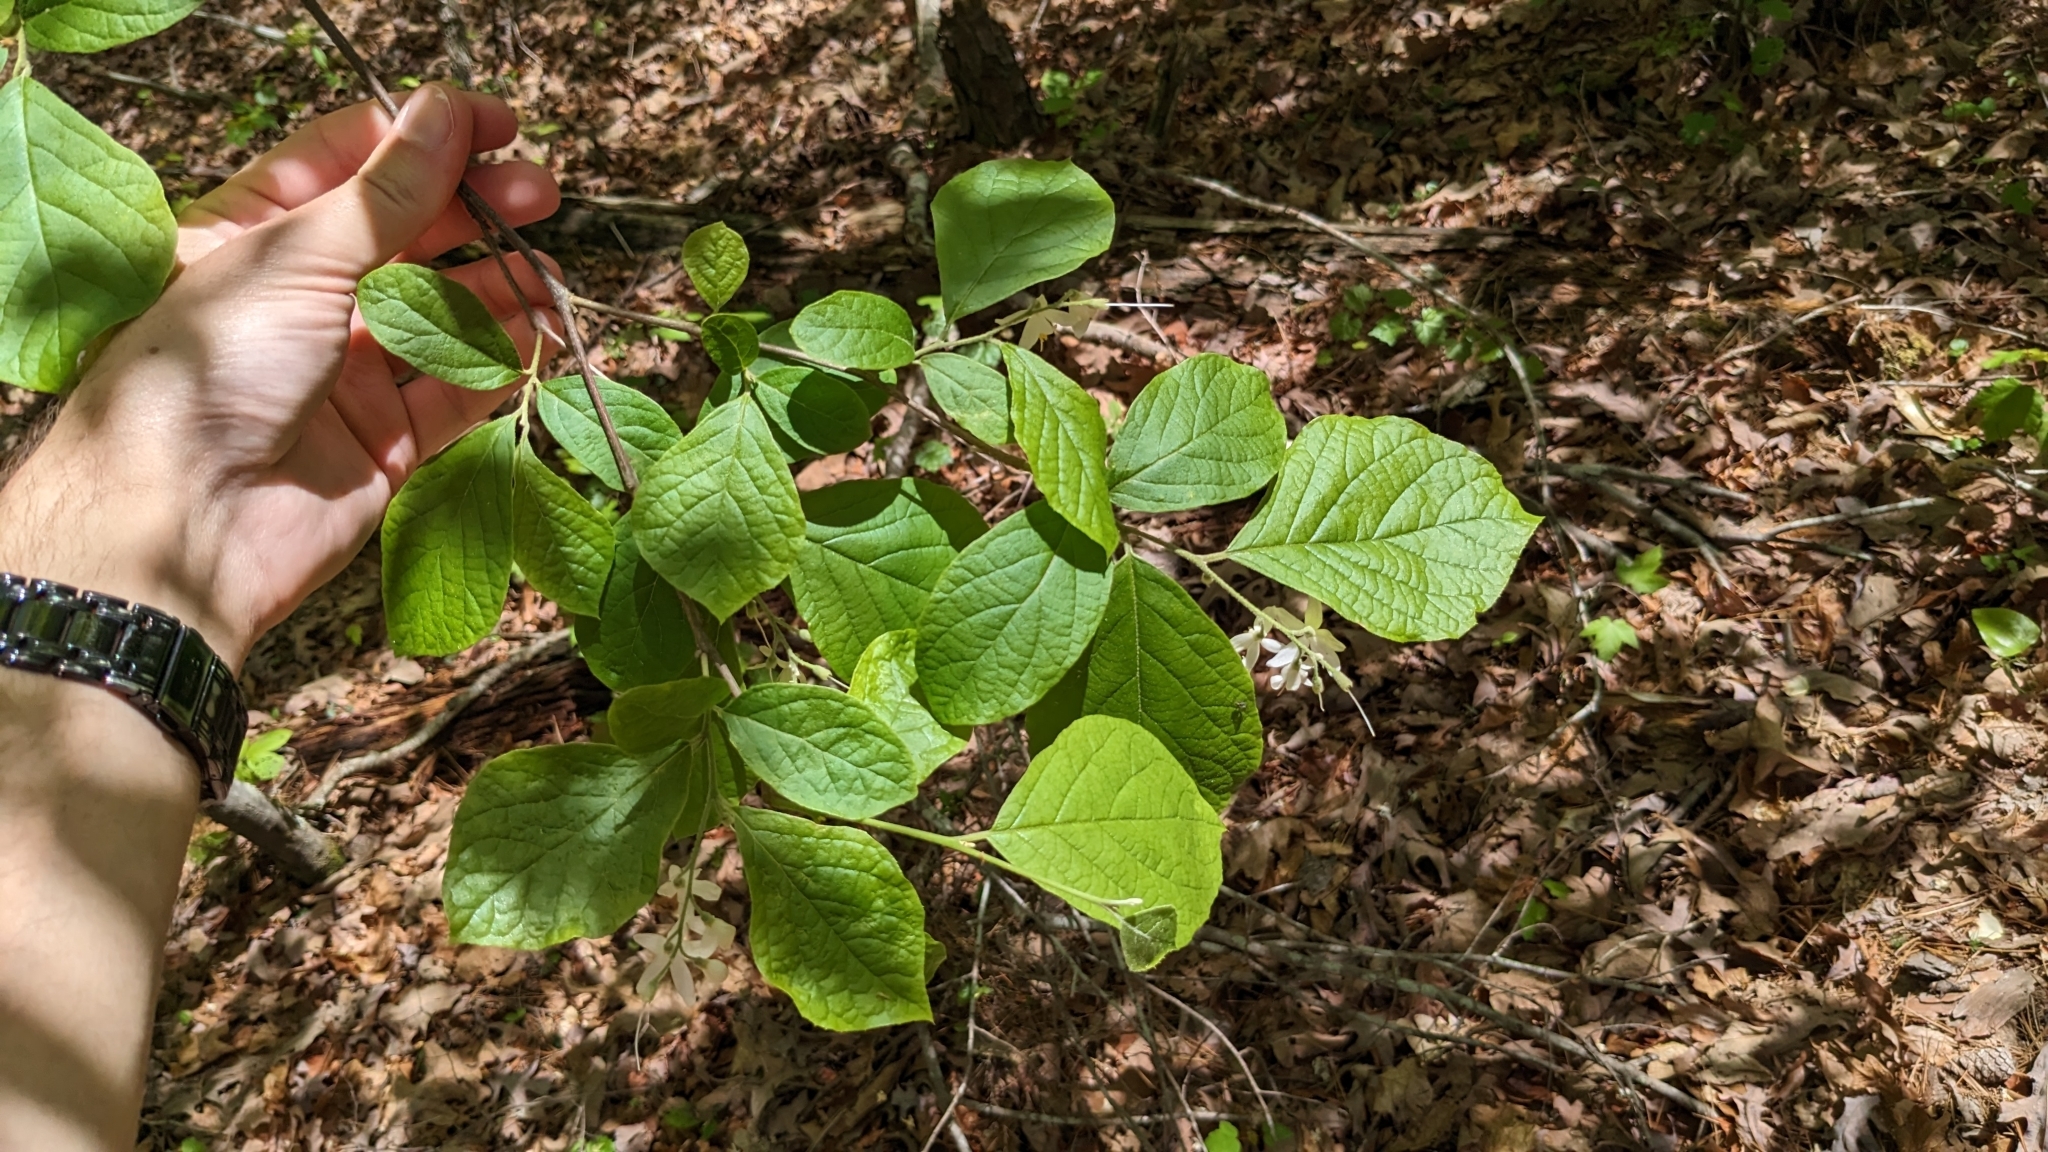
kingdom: Plantae
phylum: Tracheophyta
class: Magnoliopsida
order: Ericales
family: Styracaceae
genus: Styrax
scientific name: Styrax grandifolius
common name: Big-leaf snowbell
